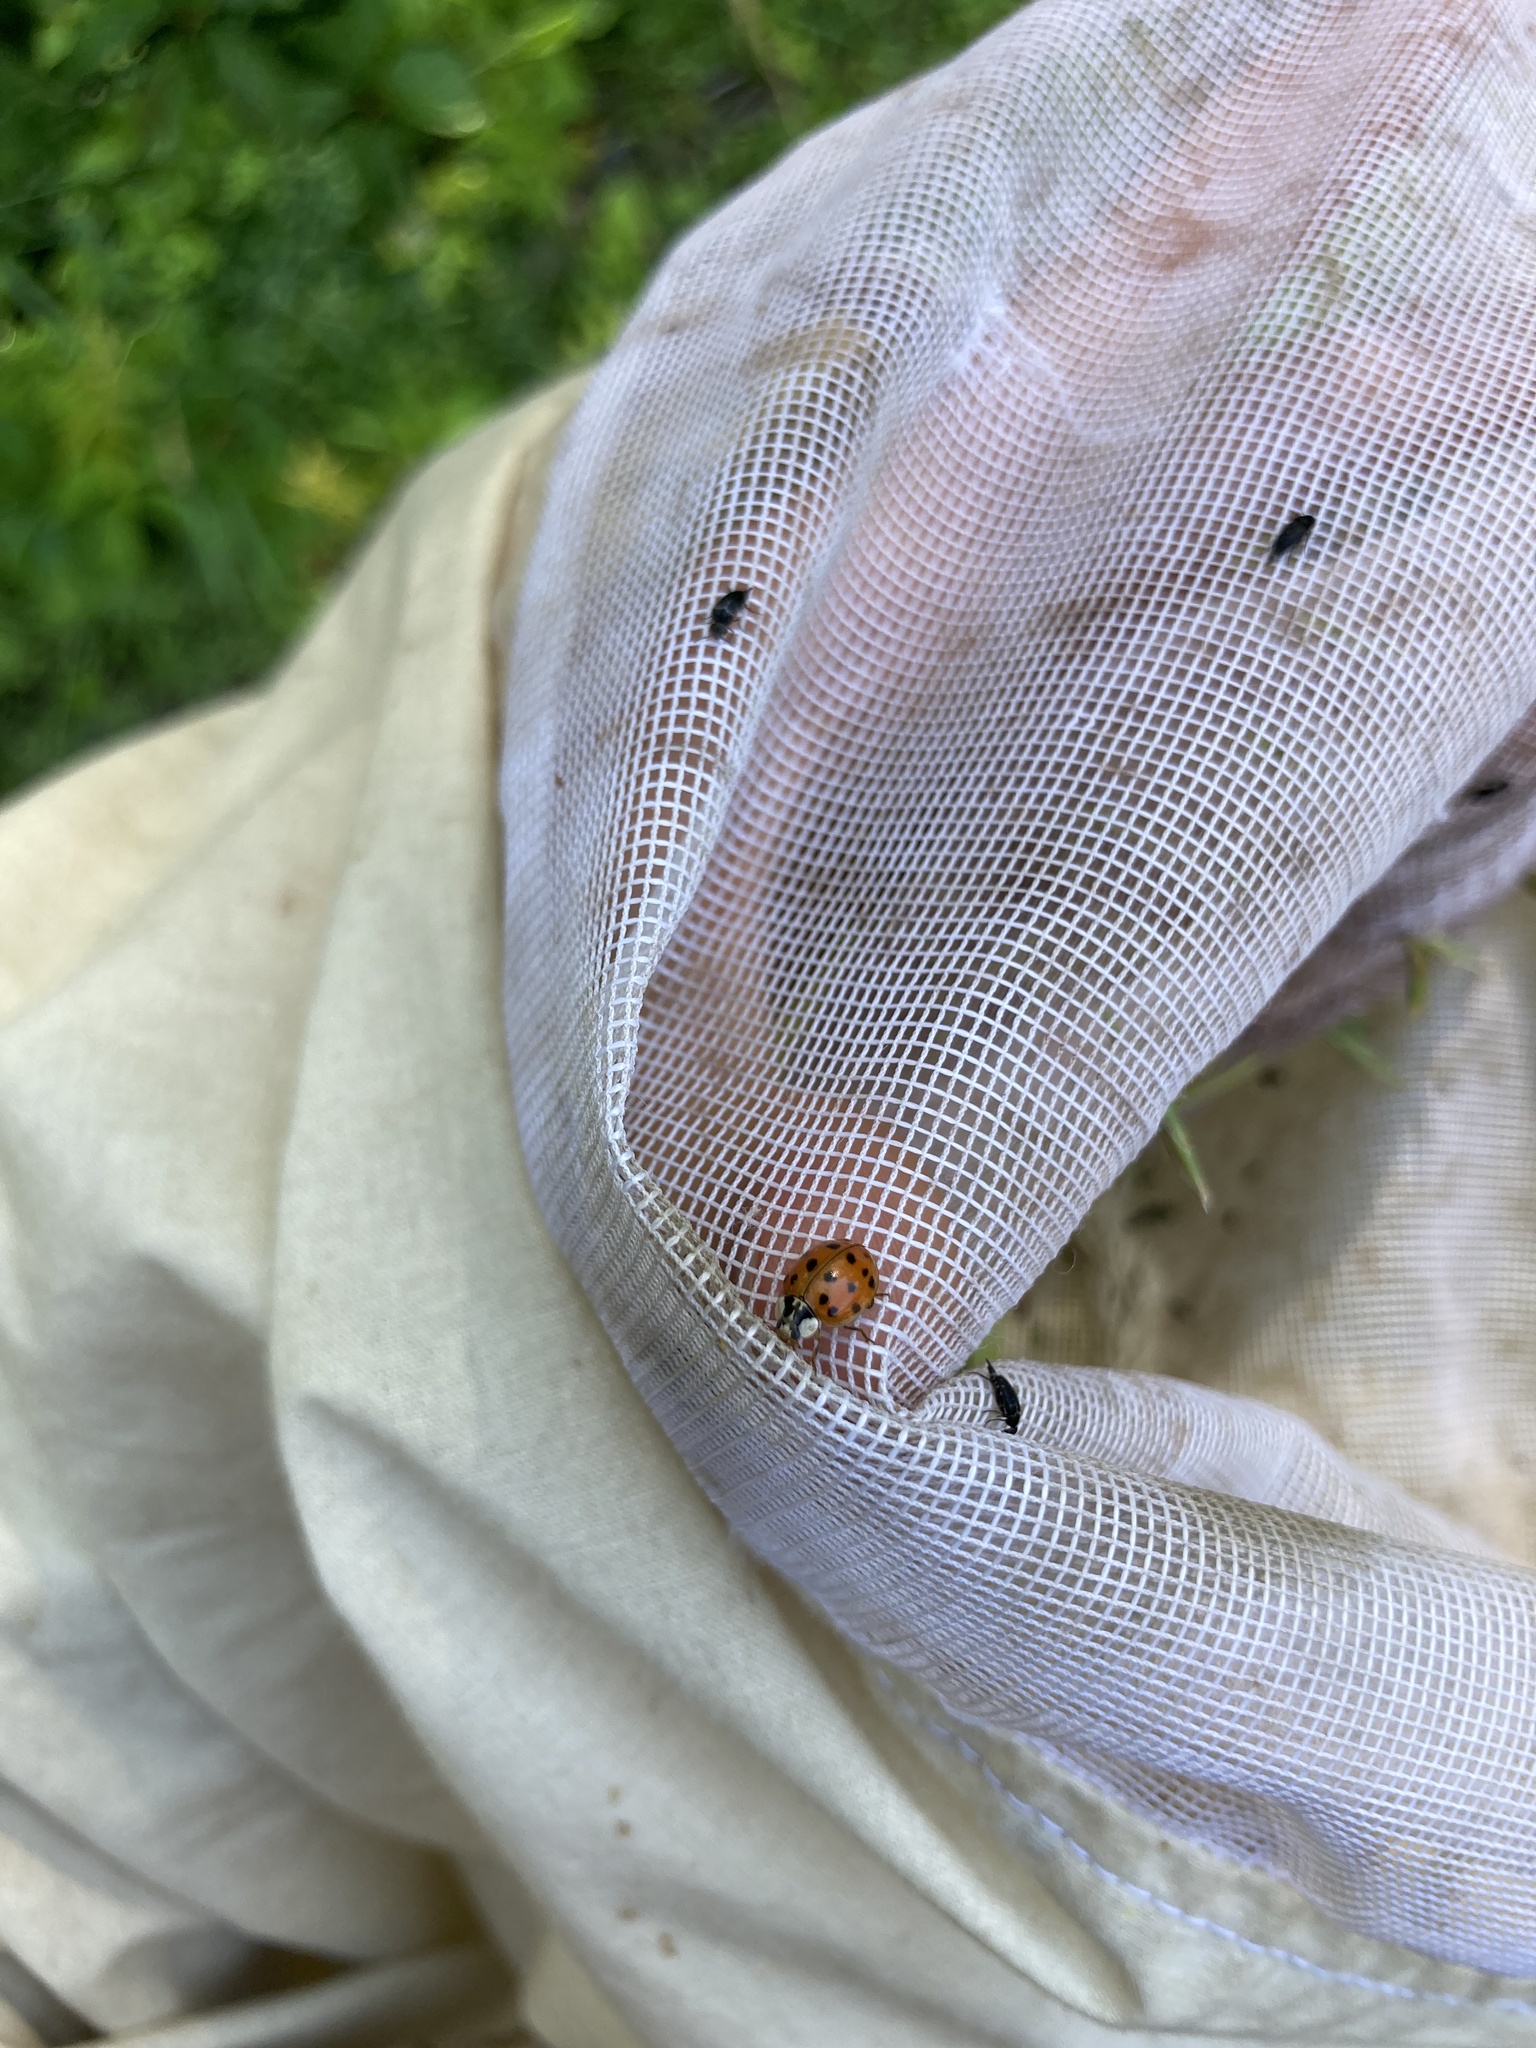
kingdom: Animalia
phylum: Arthropoda
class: Insecta
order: Coleoptera
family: Coccinellidae
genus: Harmonia
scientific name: Harmonia axyridis
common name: Harlequin ladybird
